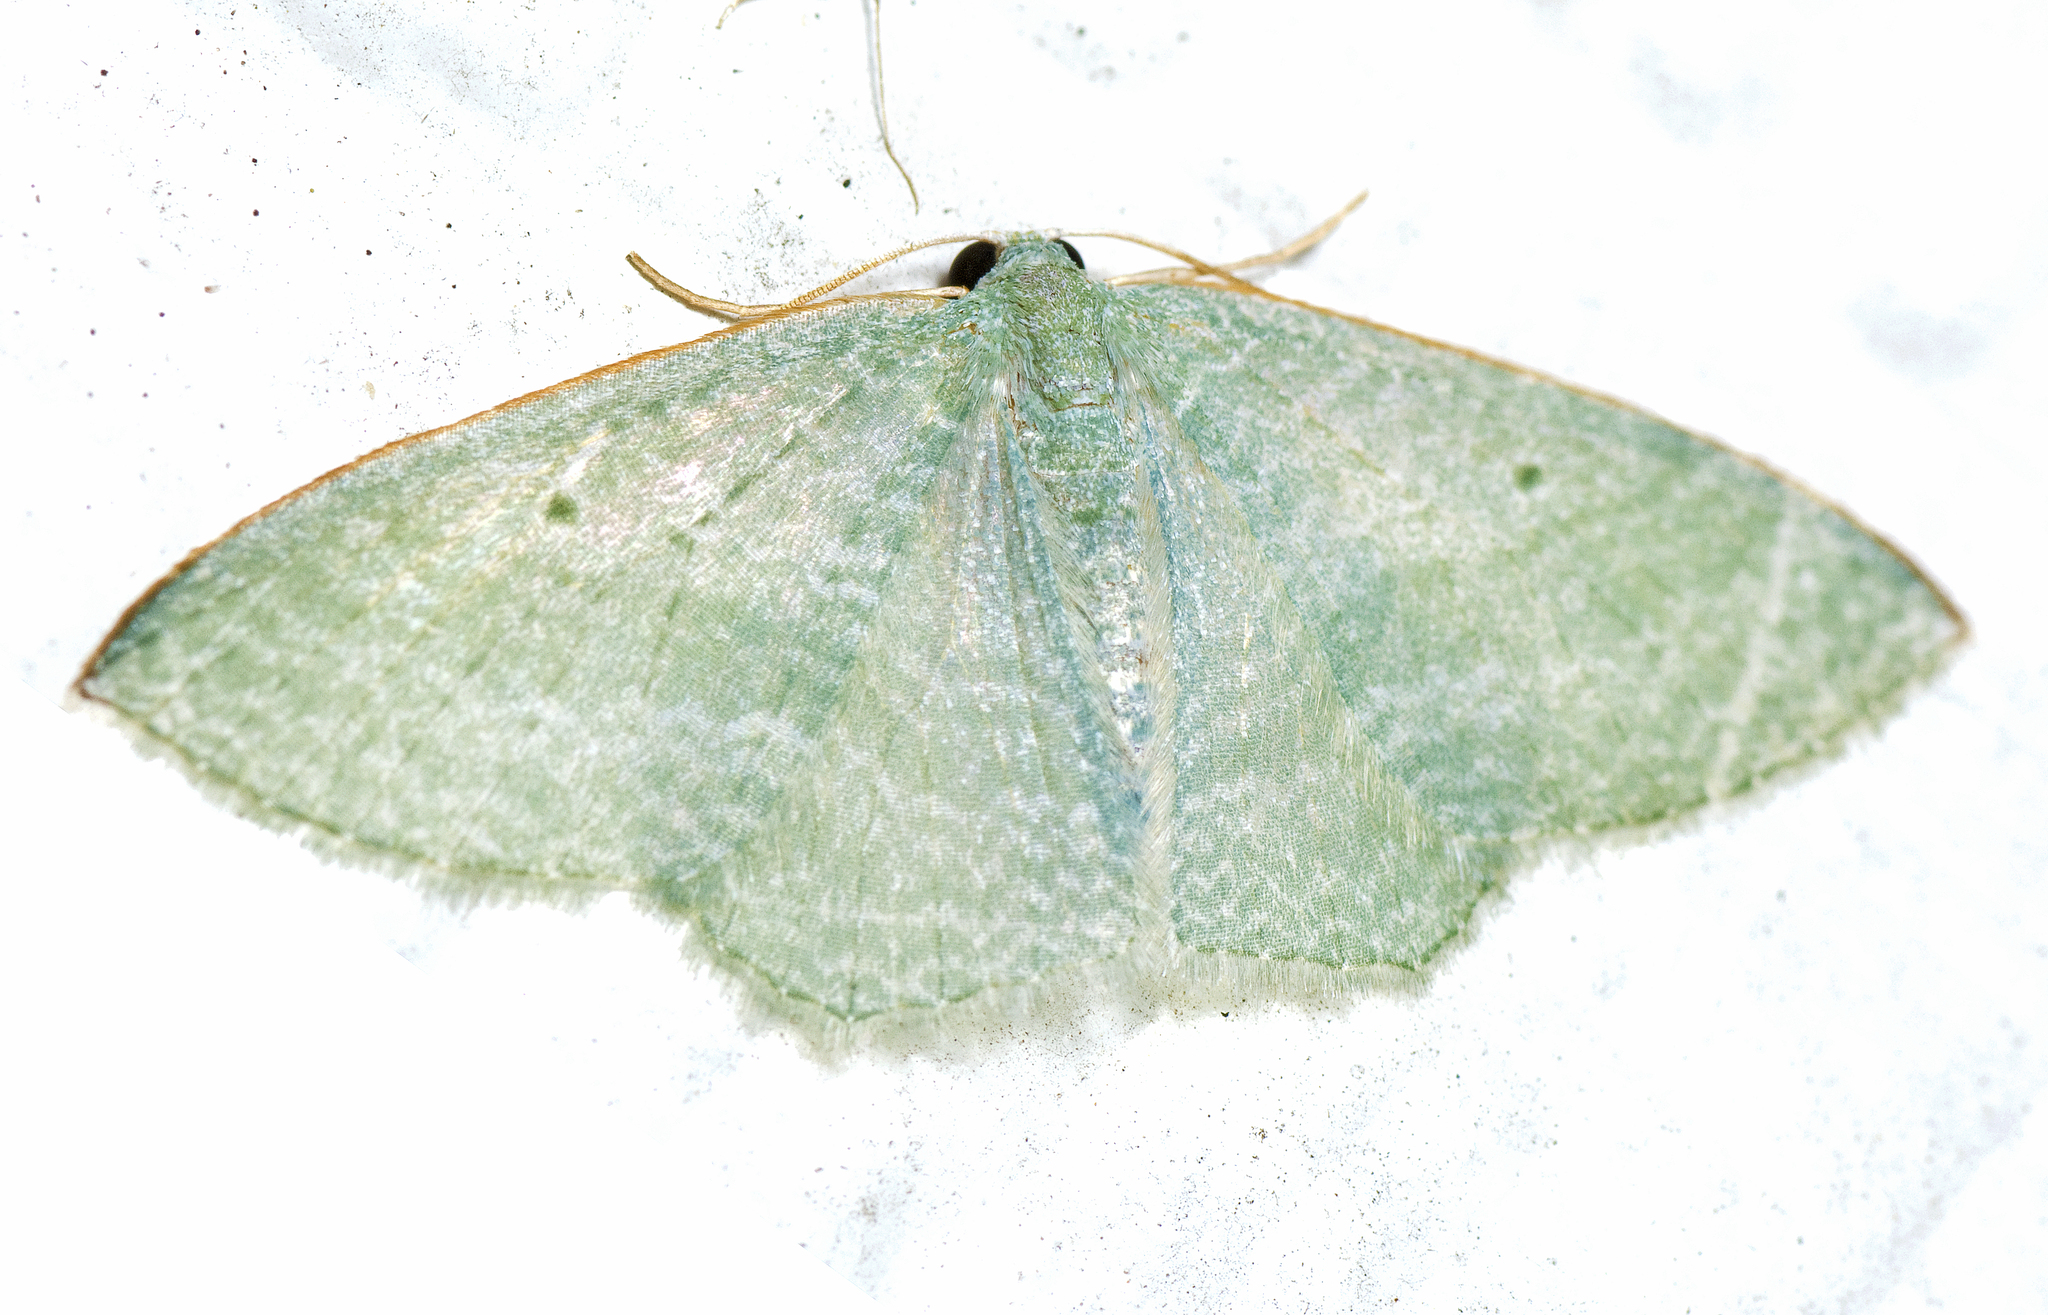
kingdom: Animalia
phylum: Arthropoda
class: Insecta
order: Lepidoptera
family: Geometridae
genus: Poecilasthena
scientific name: Poecilasthena thalassias
